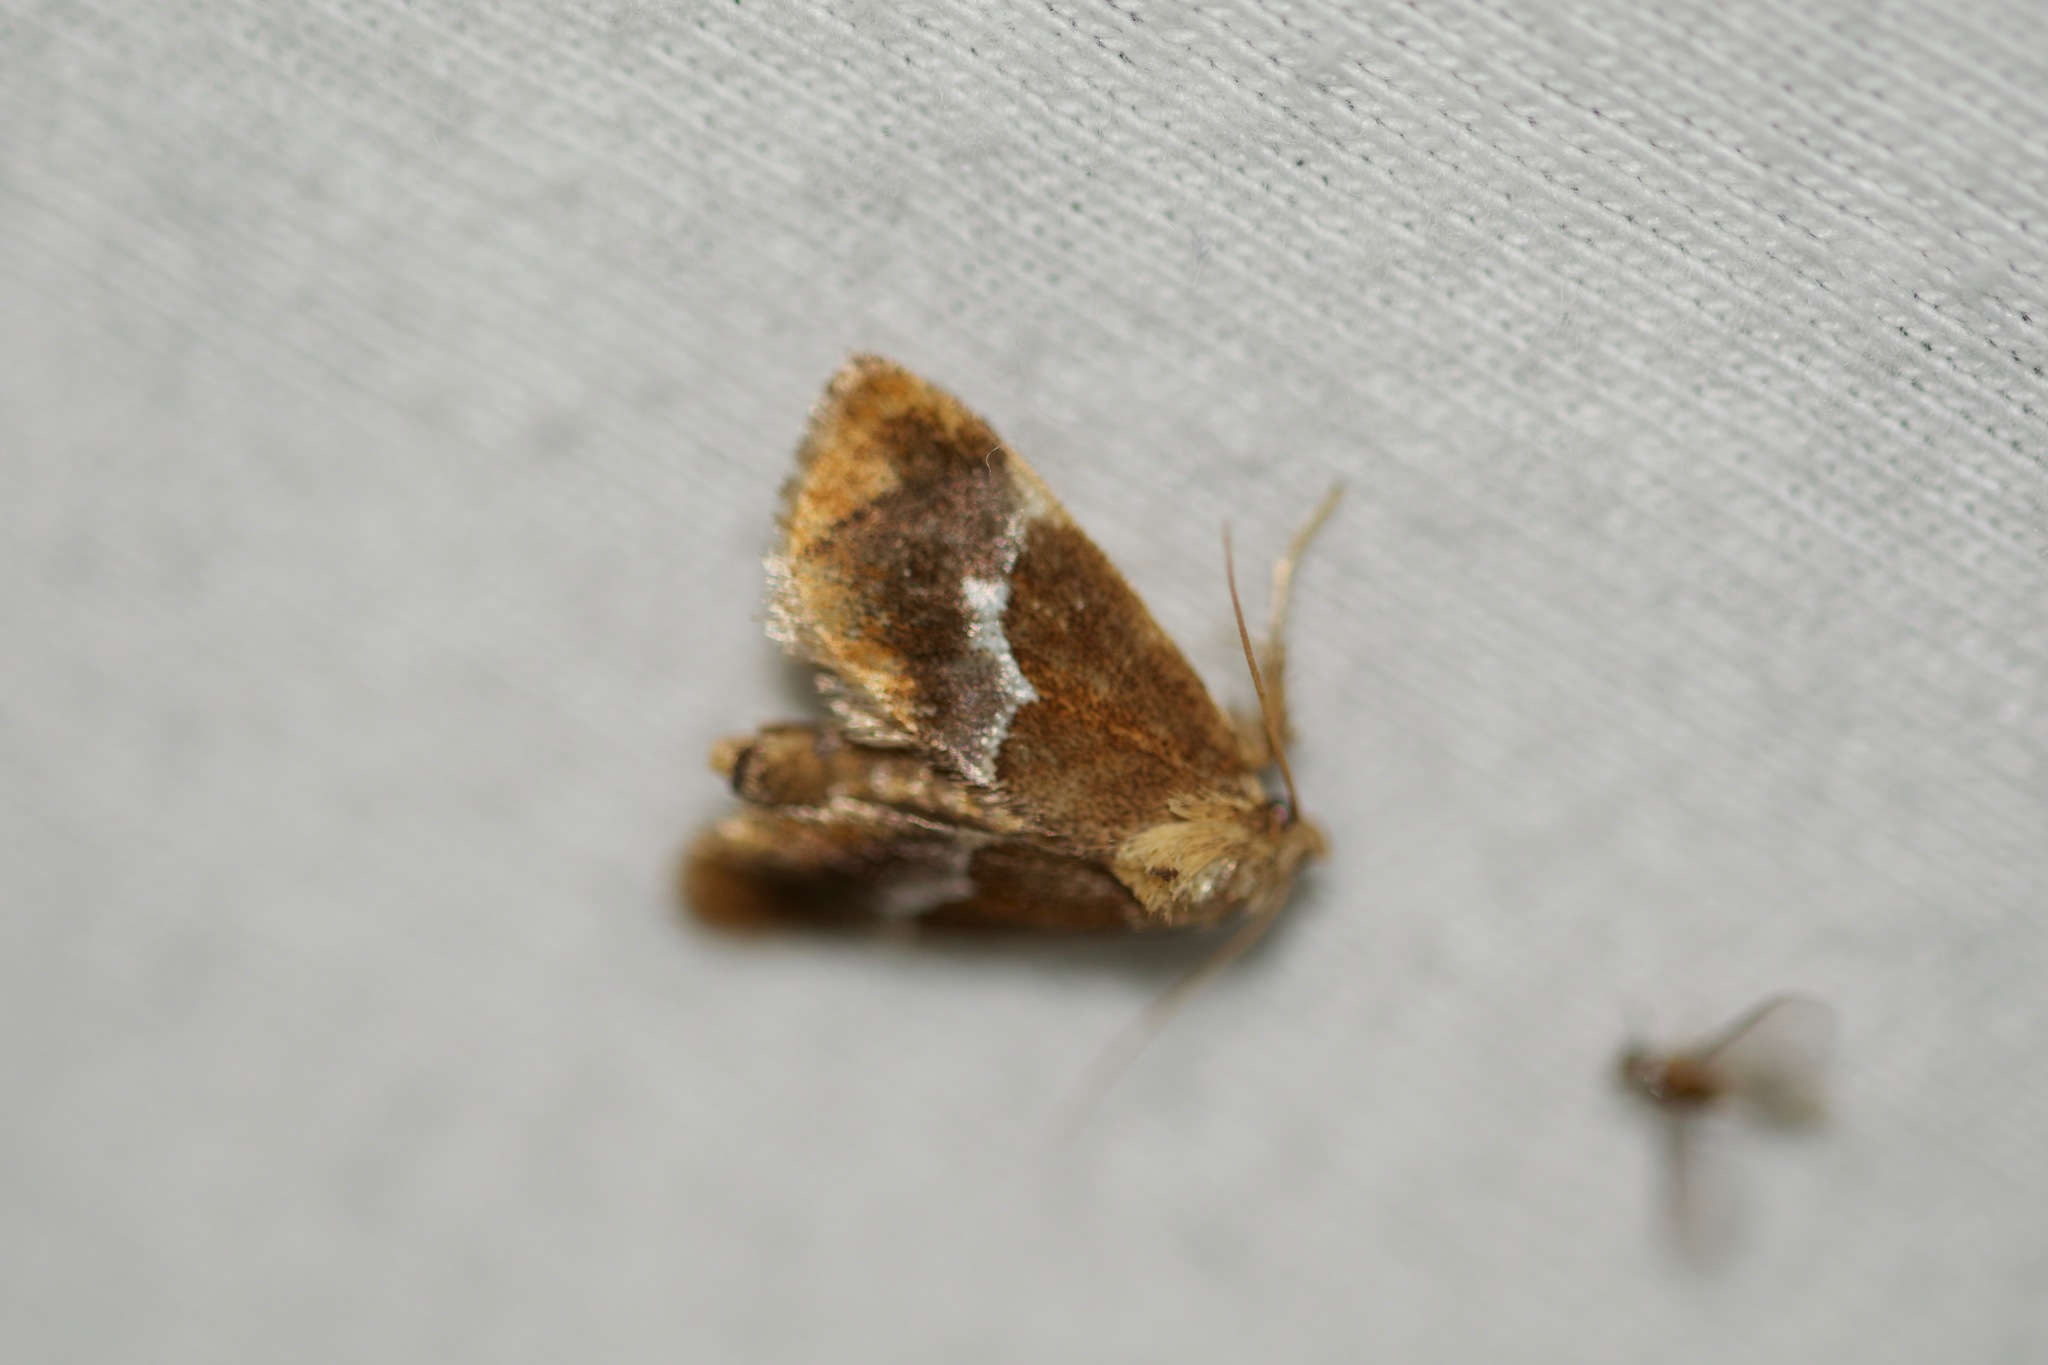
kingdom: Animalia
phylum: Arthropoda
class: Insecta
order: Lepidoptera
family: Limacodidae
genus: Lithacodes
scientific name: Lithacodes fasciola
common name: Yellow-shouldered slug moth
